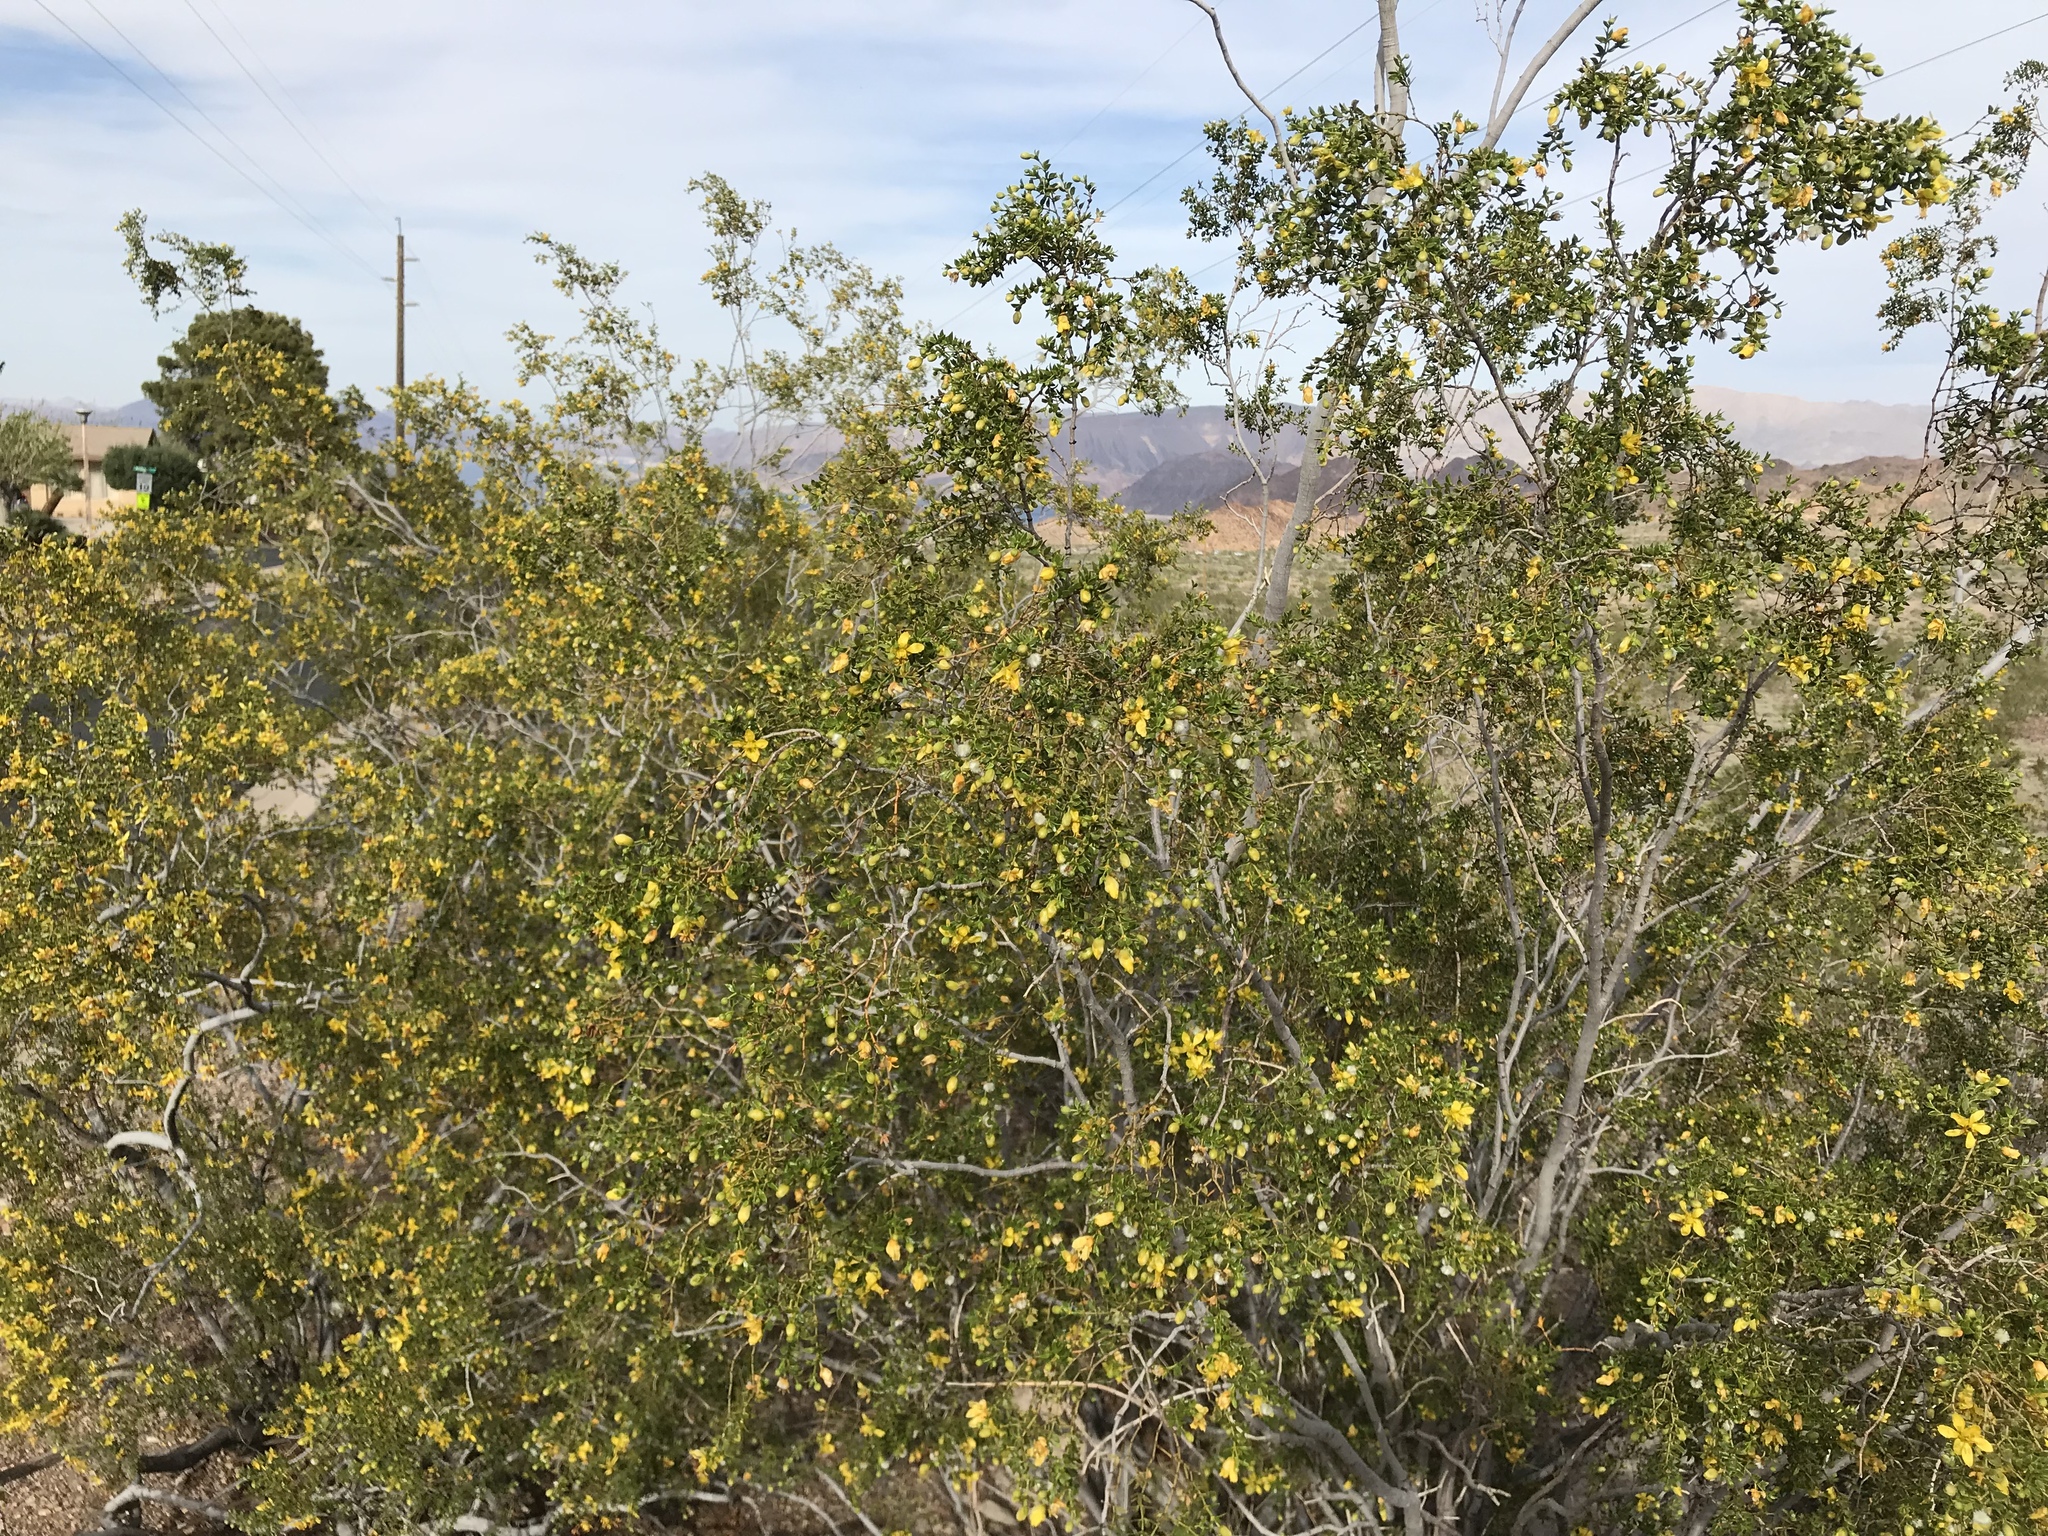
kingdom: Plantae
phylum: Tracheophyta
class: Magnoliopsida
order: Zygophyllales
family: Zygophyllaceae
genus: Larrea
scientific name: Larrea tridentata
